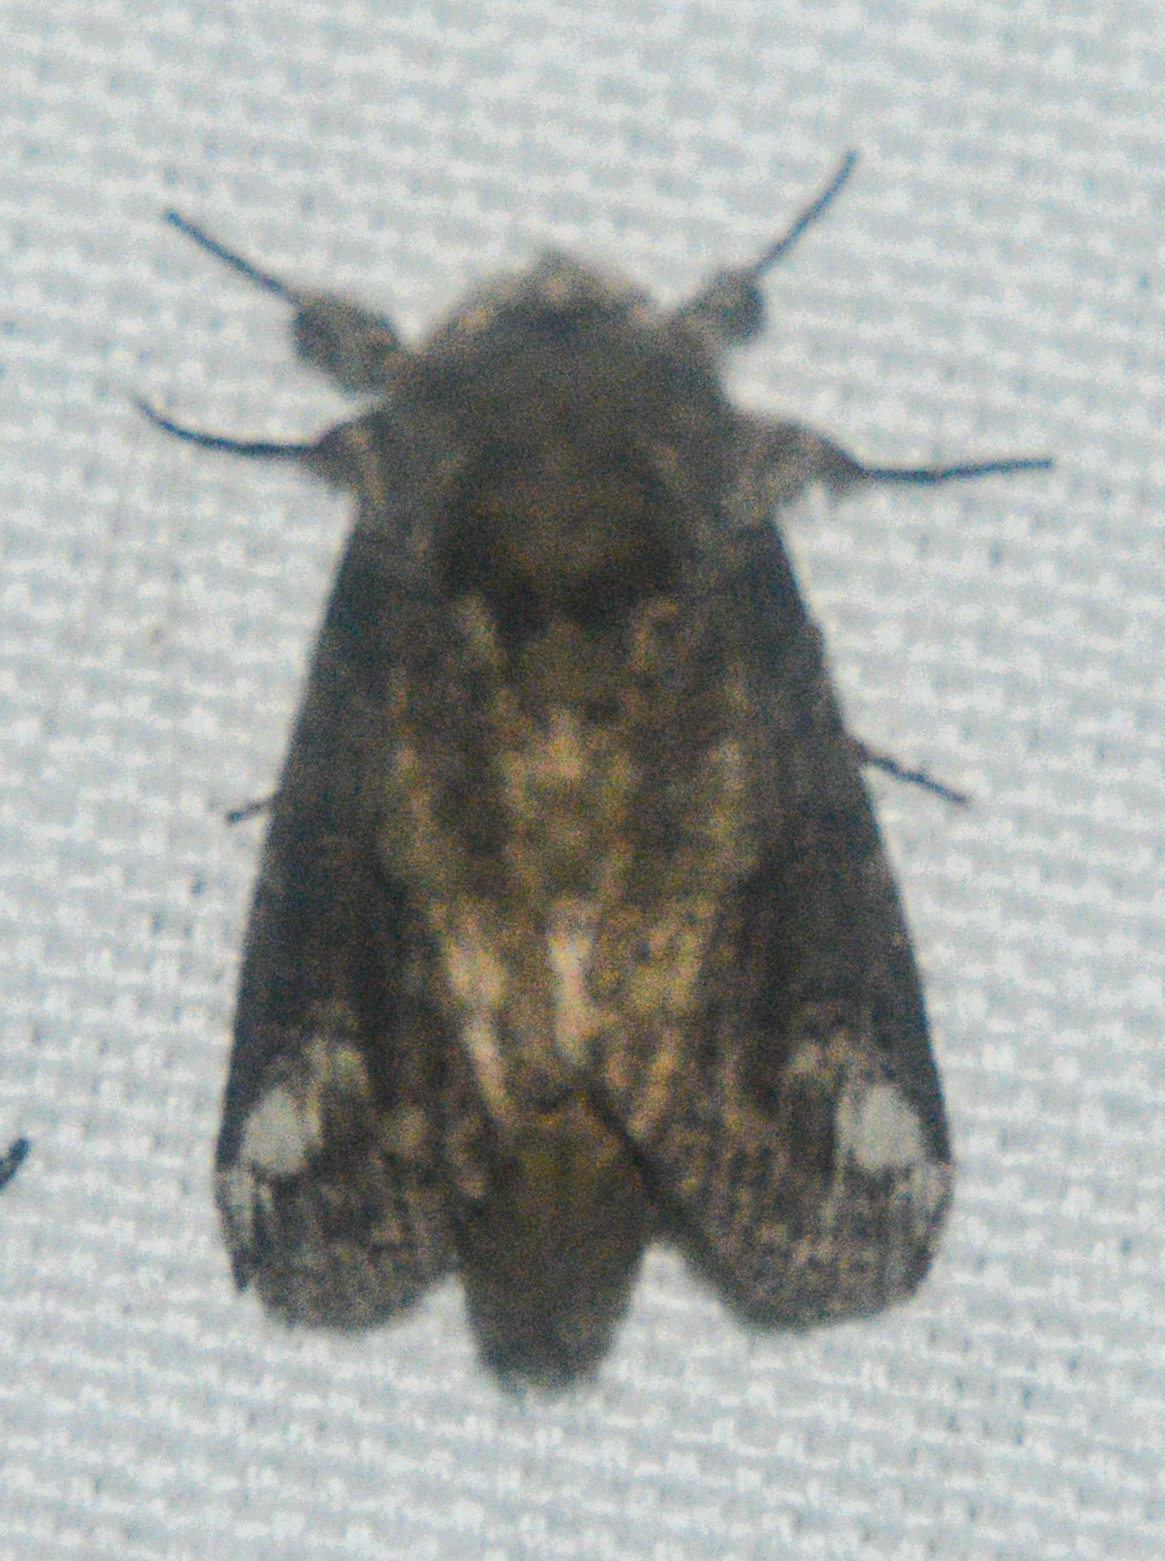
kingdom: Animalia
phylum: Arthropoda
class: Insecta
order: Lepidoptera
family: Notodontidae
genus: Heterocampa
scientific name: Heterocampa obliqua
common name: Oblique heterocampa
